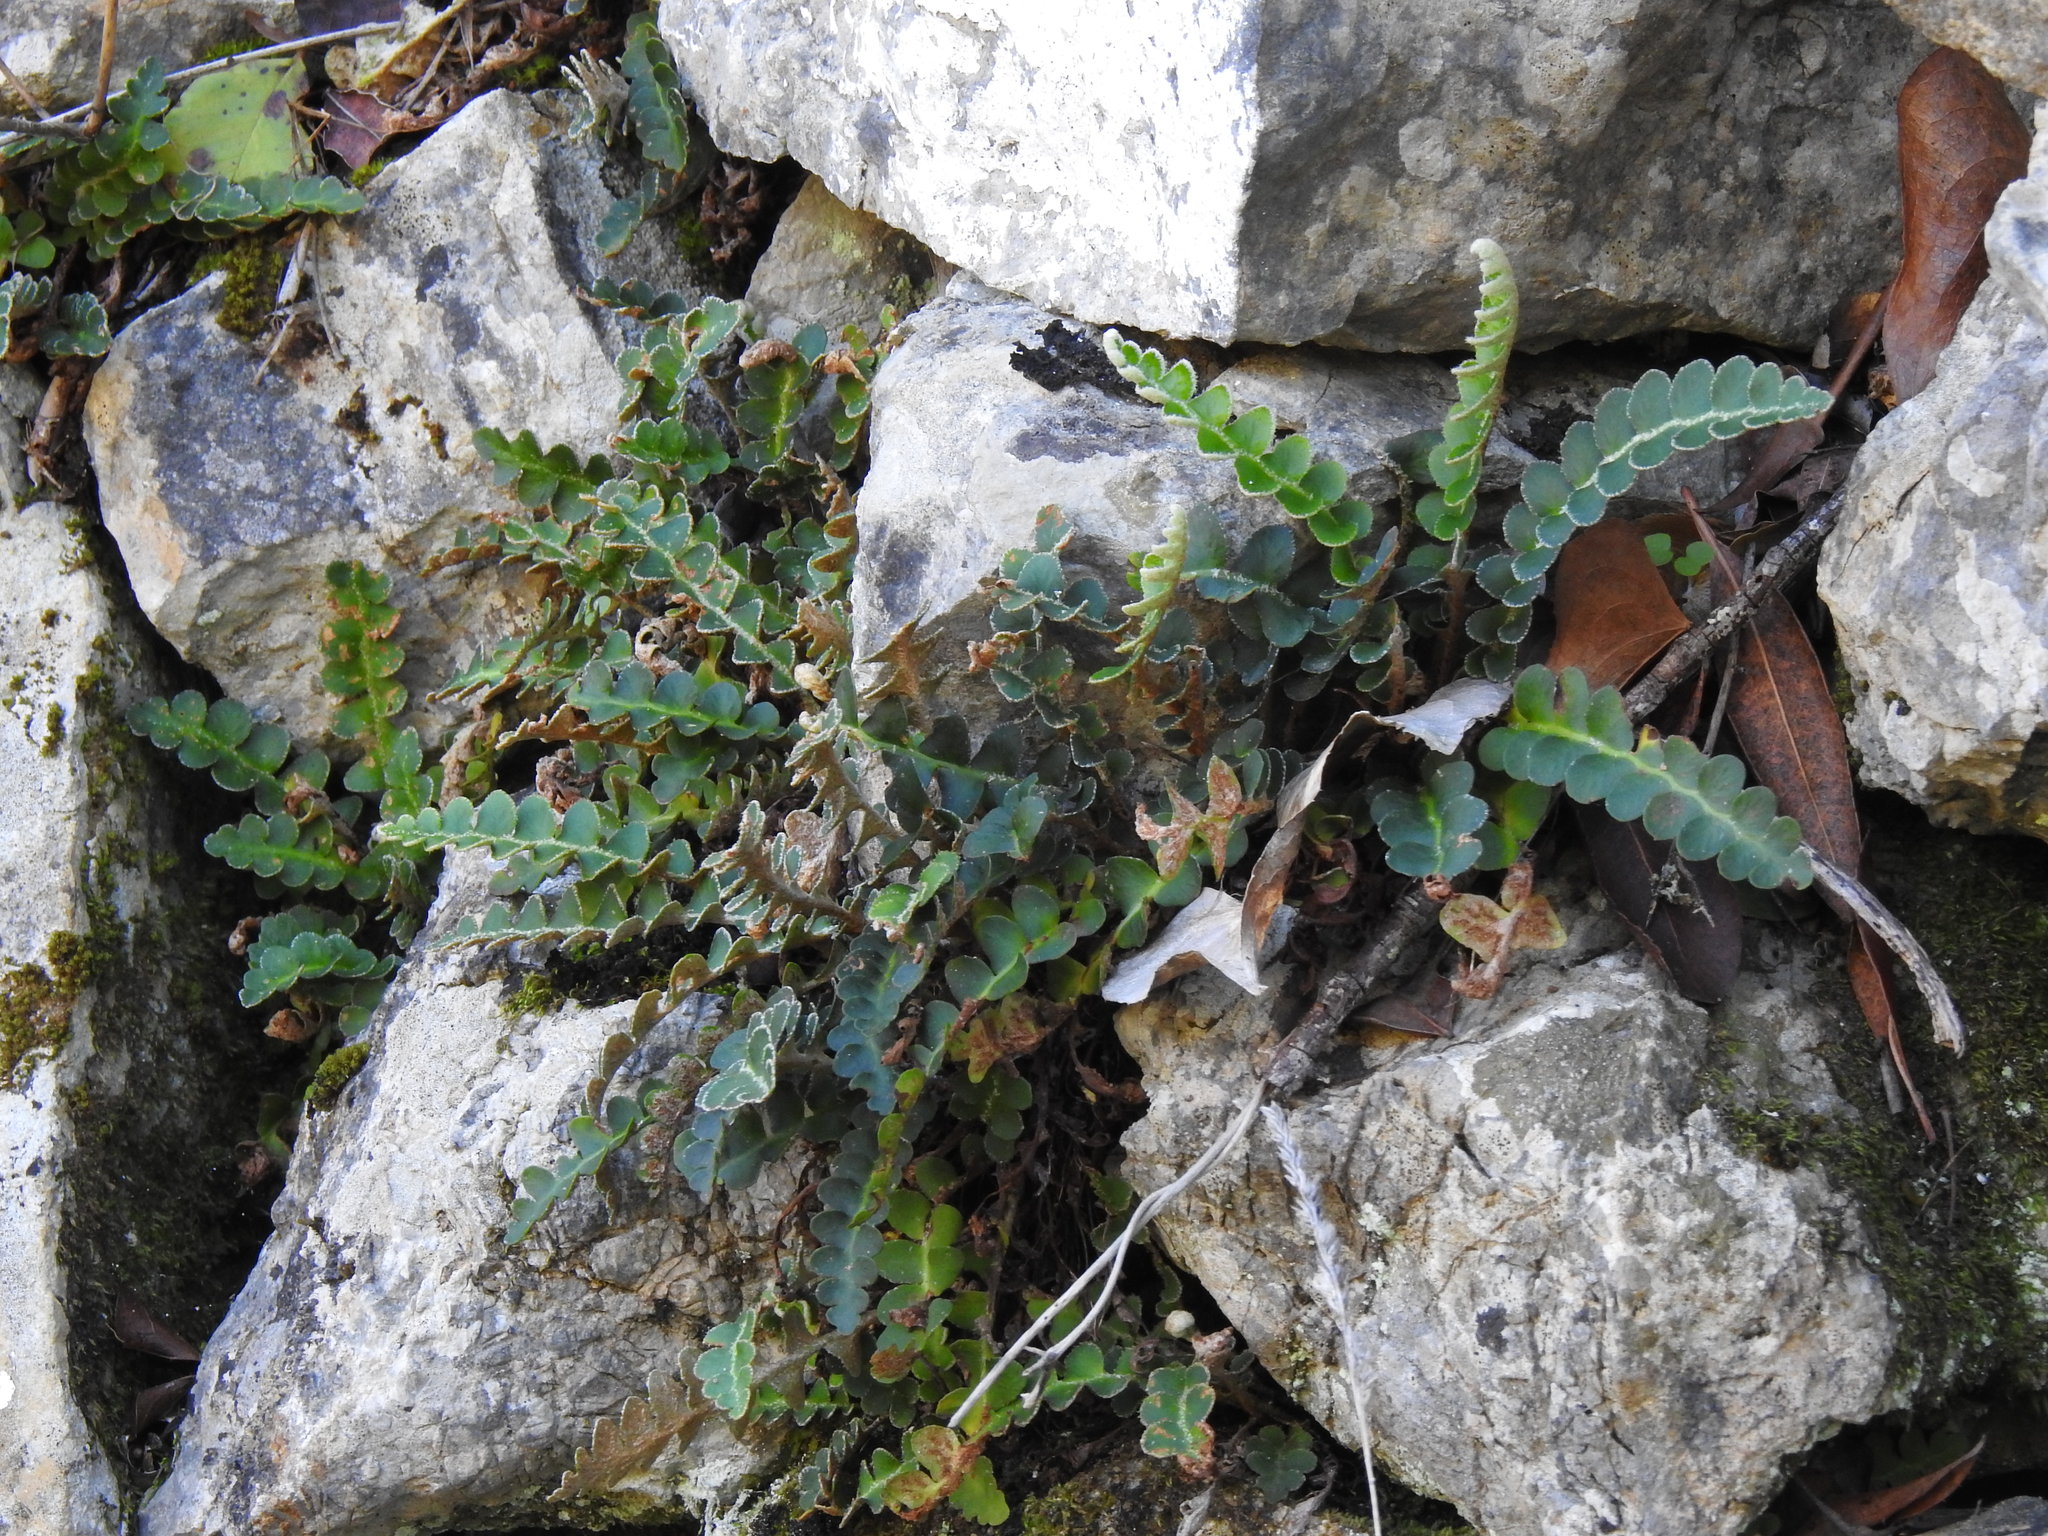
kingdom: Plantae
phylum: Tracheophyta
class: Polypodiopsida
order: Polypodiales
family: Aspleniaceae
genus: Asplenium
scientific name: Asplenium ceterach
